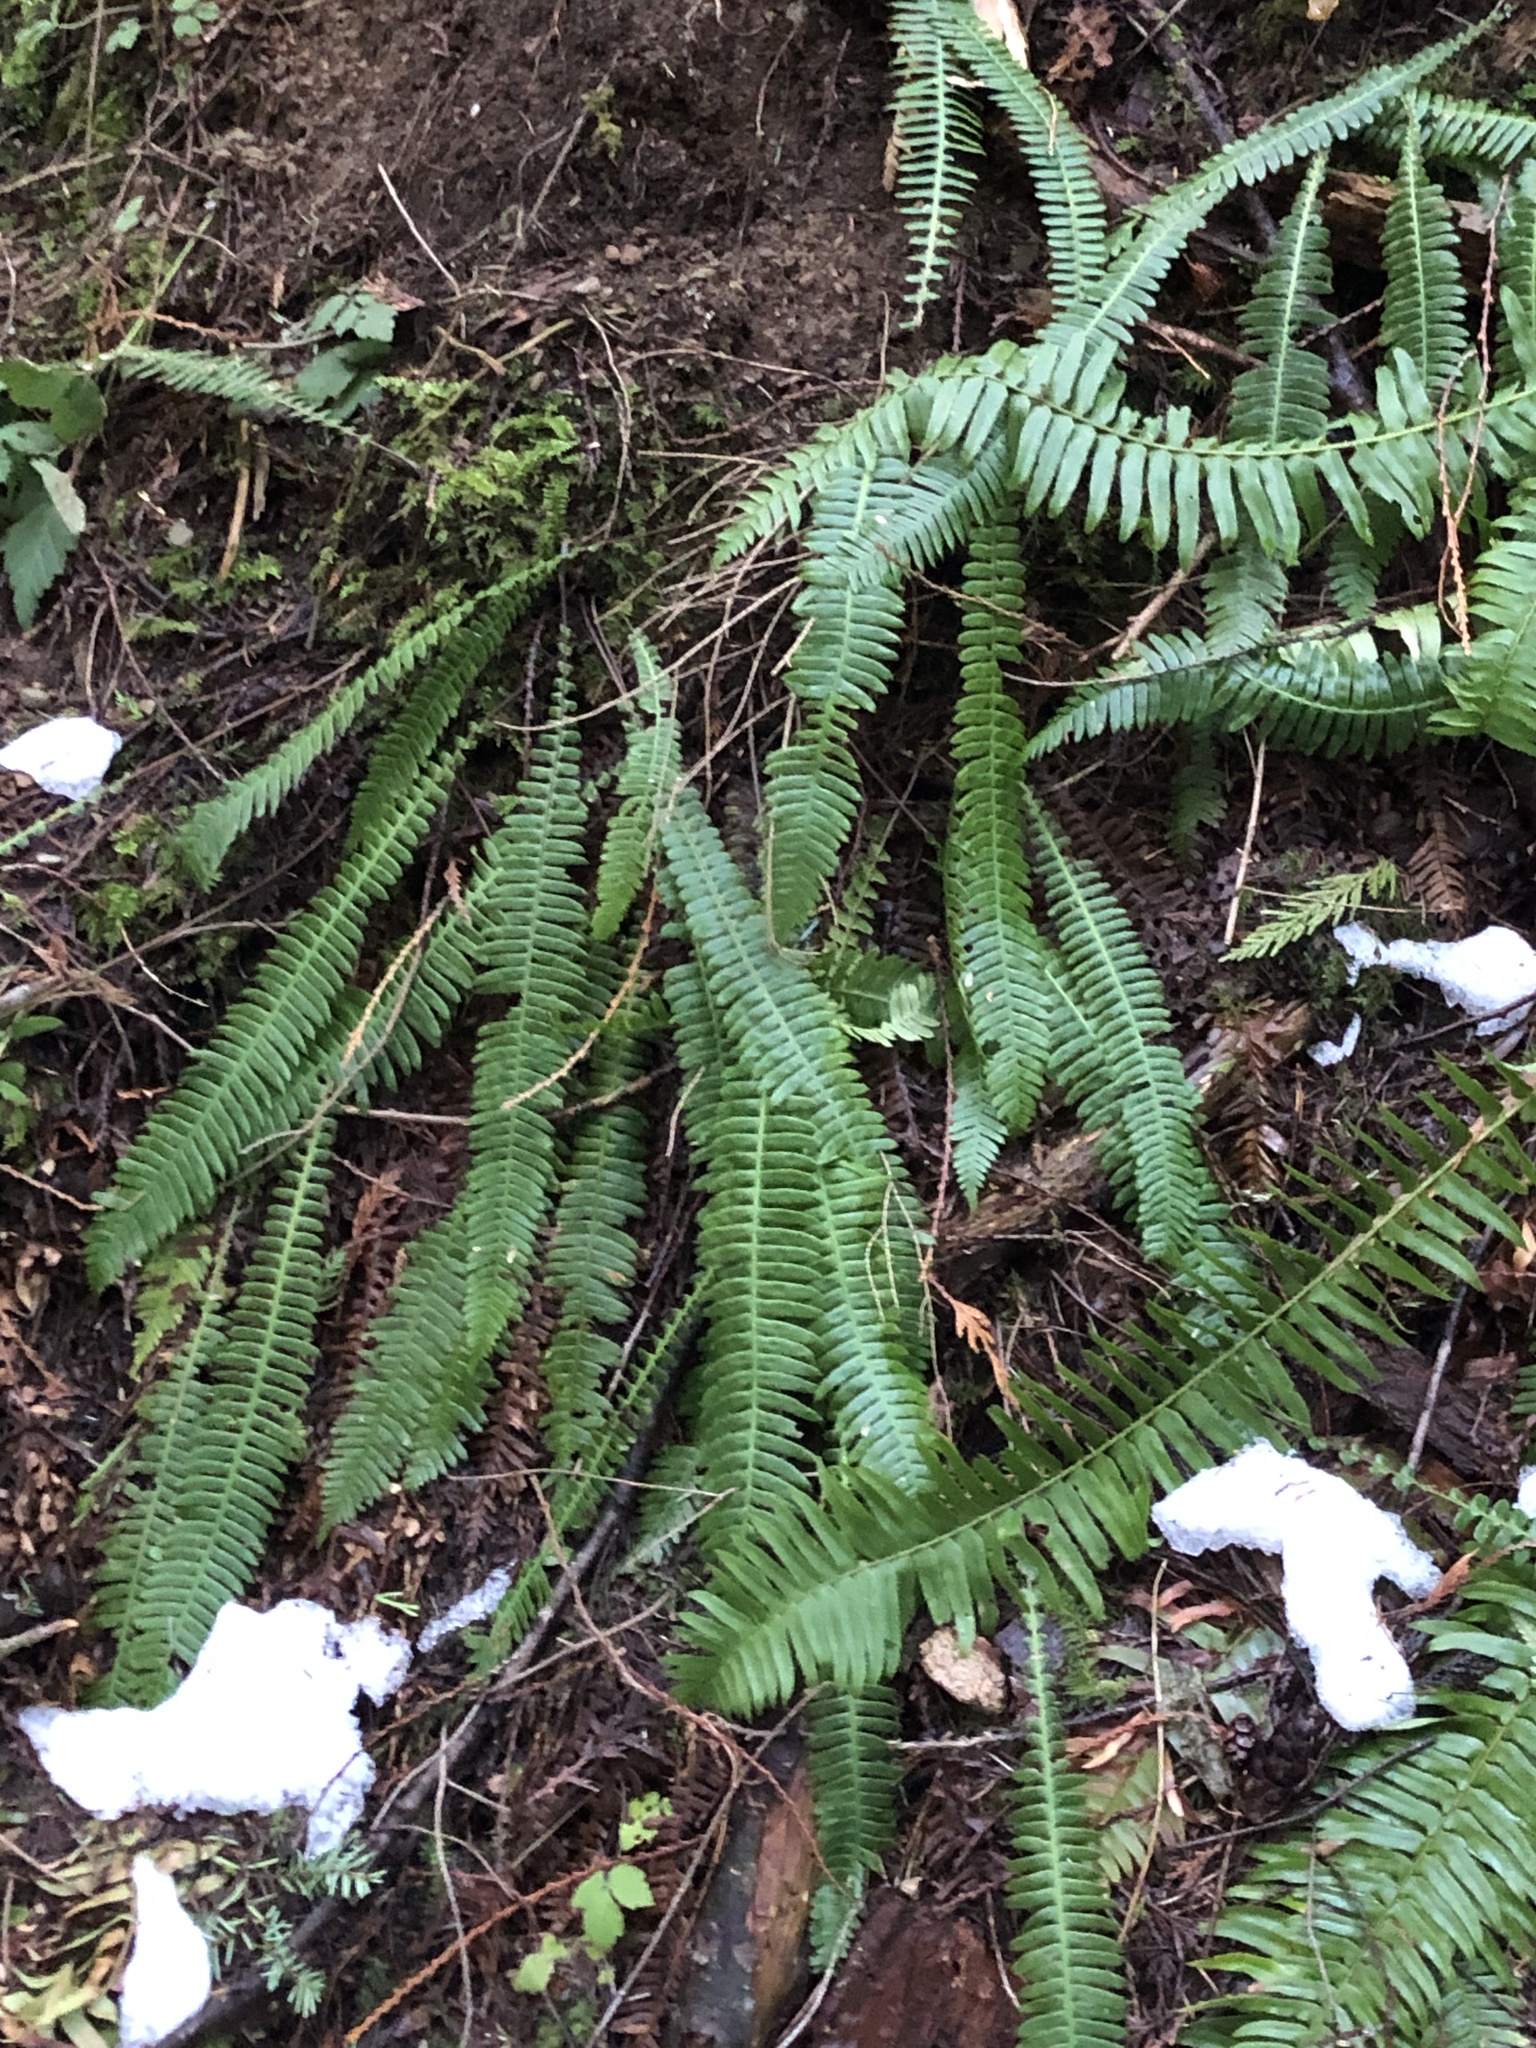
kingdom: Plantae
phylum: Tracheophyta
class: Polypodiopsida
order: Polypodiales
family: Blechnaceae
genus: Struthiopteris
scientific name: Struthiopteris spicant
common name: Deer fern
